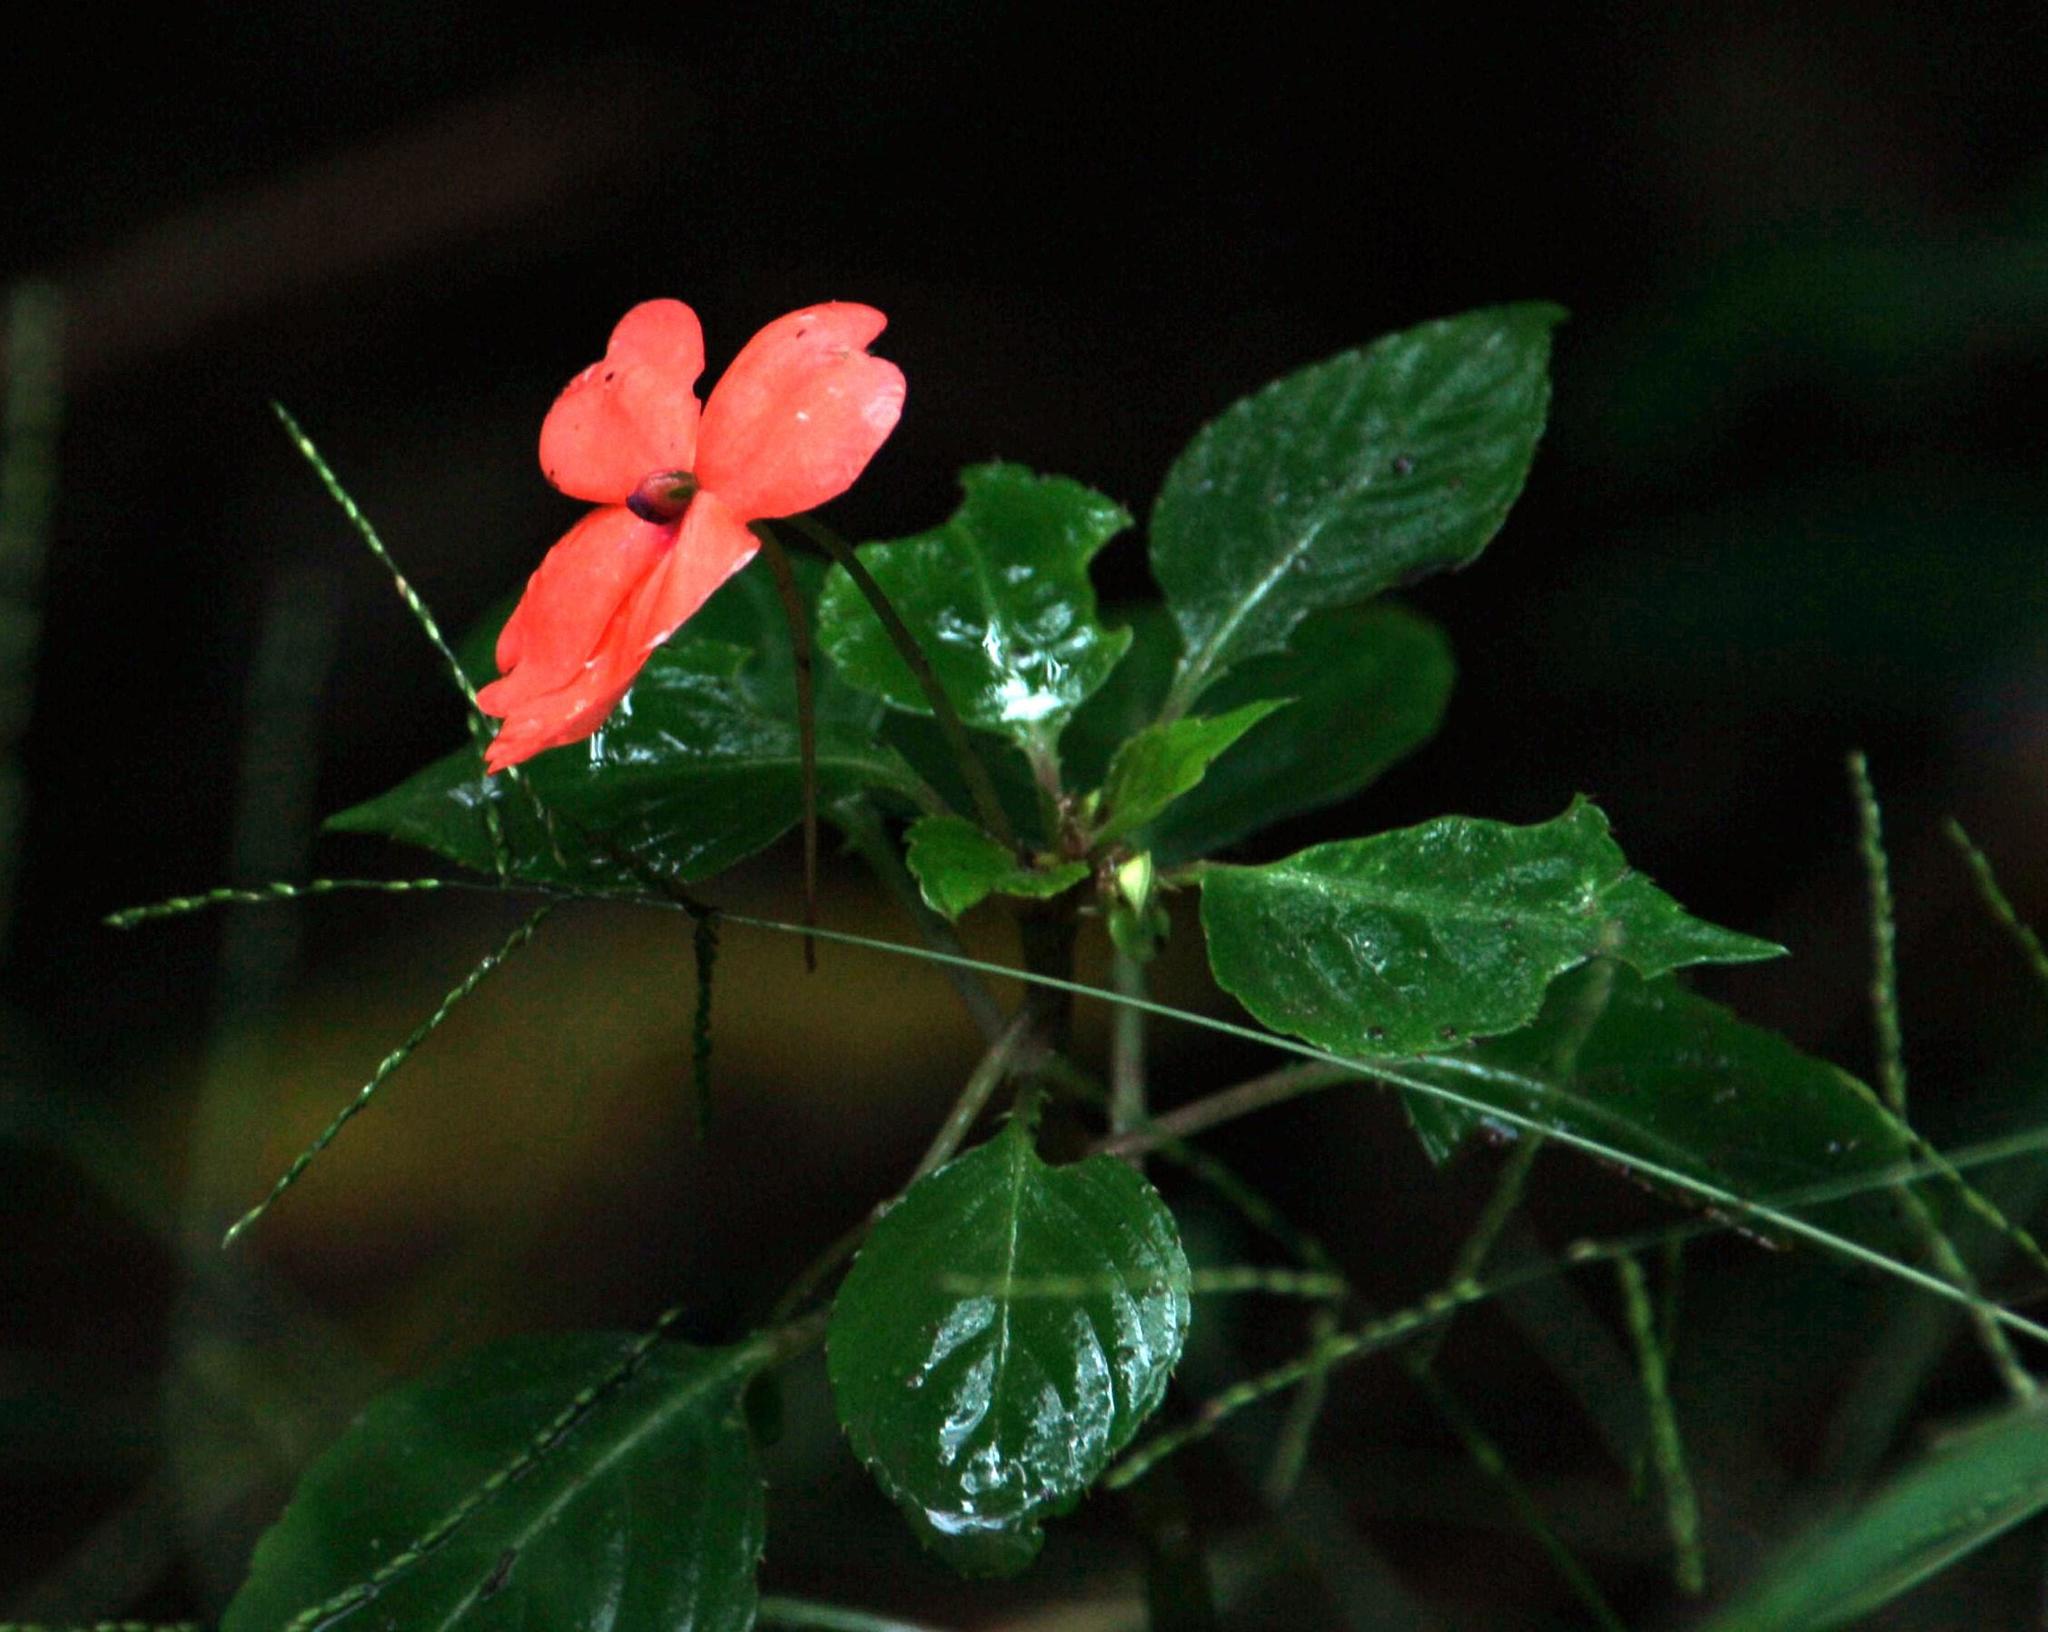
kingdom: Plantae
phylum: Tracheophyta
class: Magnoliopsida
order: Ericales
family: Balsaminaceae
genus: Impatiens
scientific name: Impatiens walleriana
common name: Buzzy lizzy
